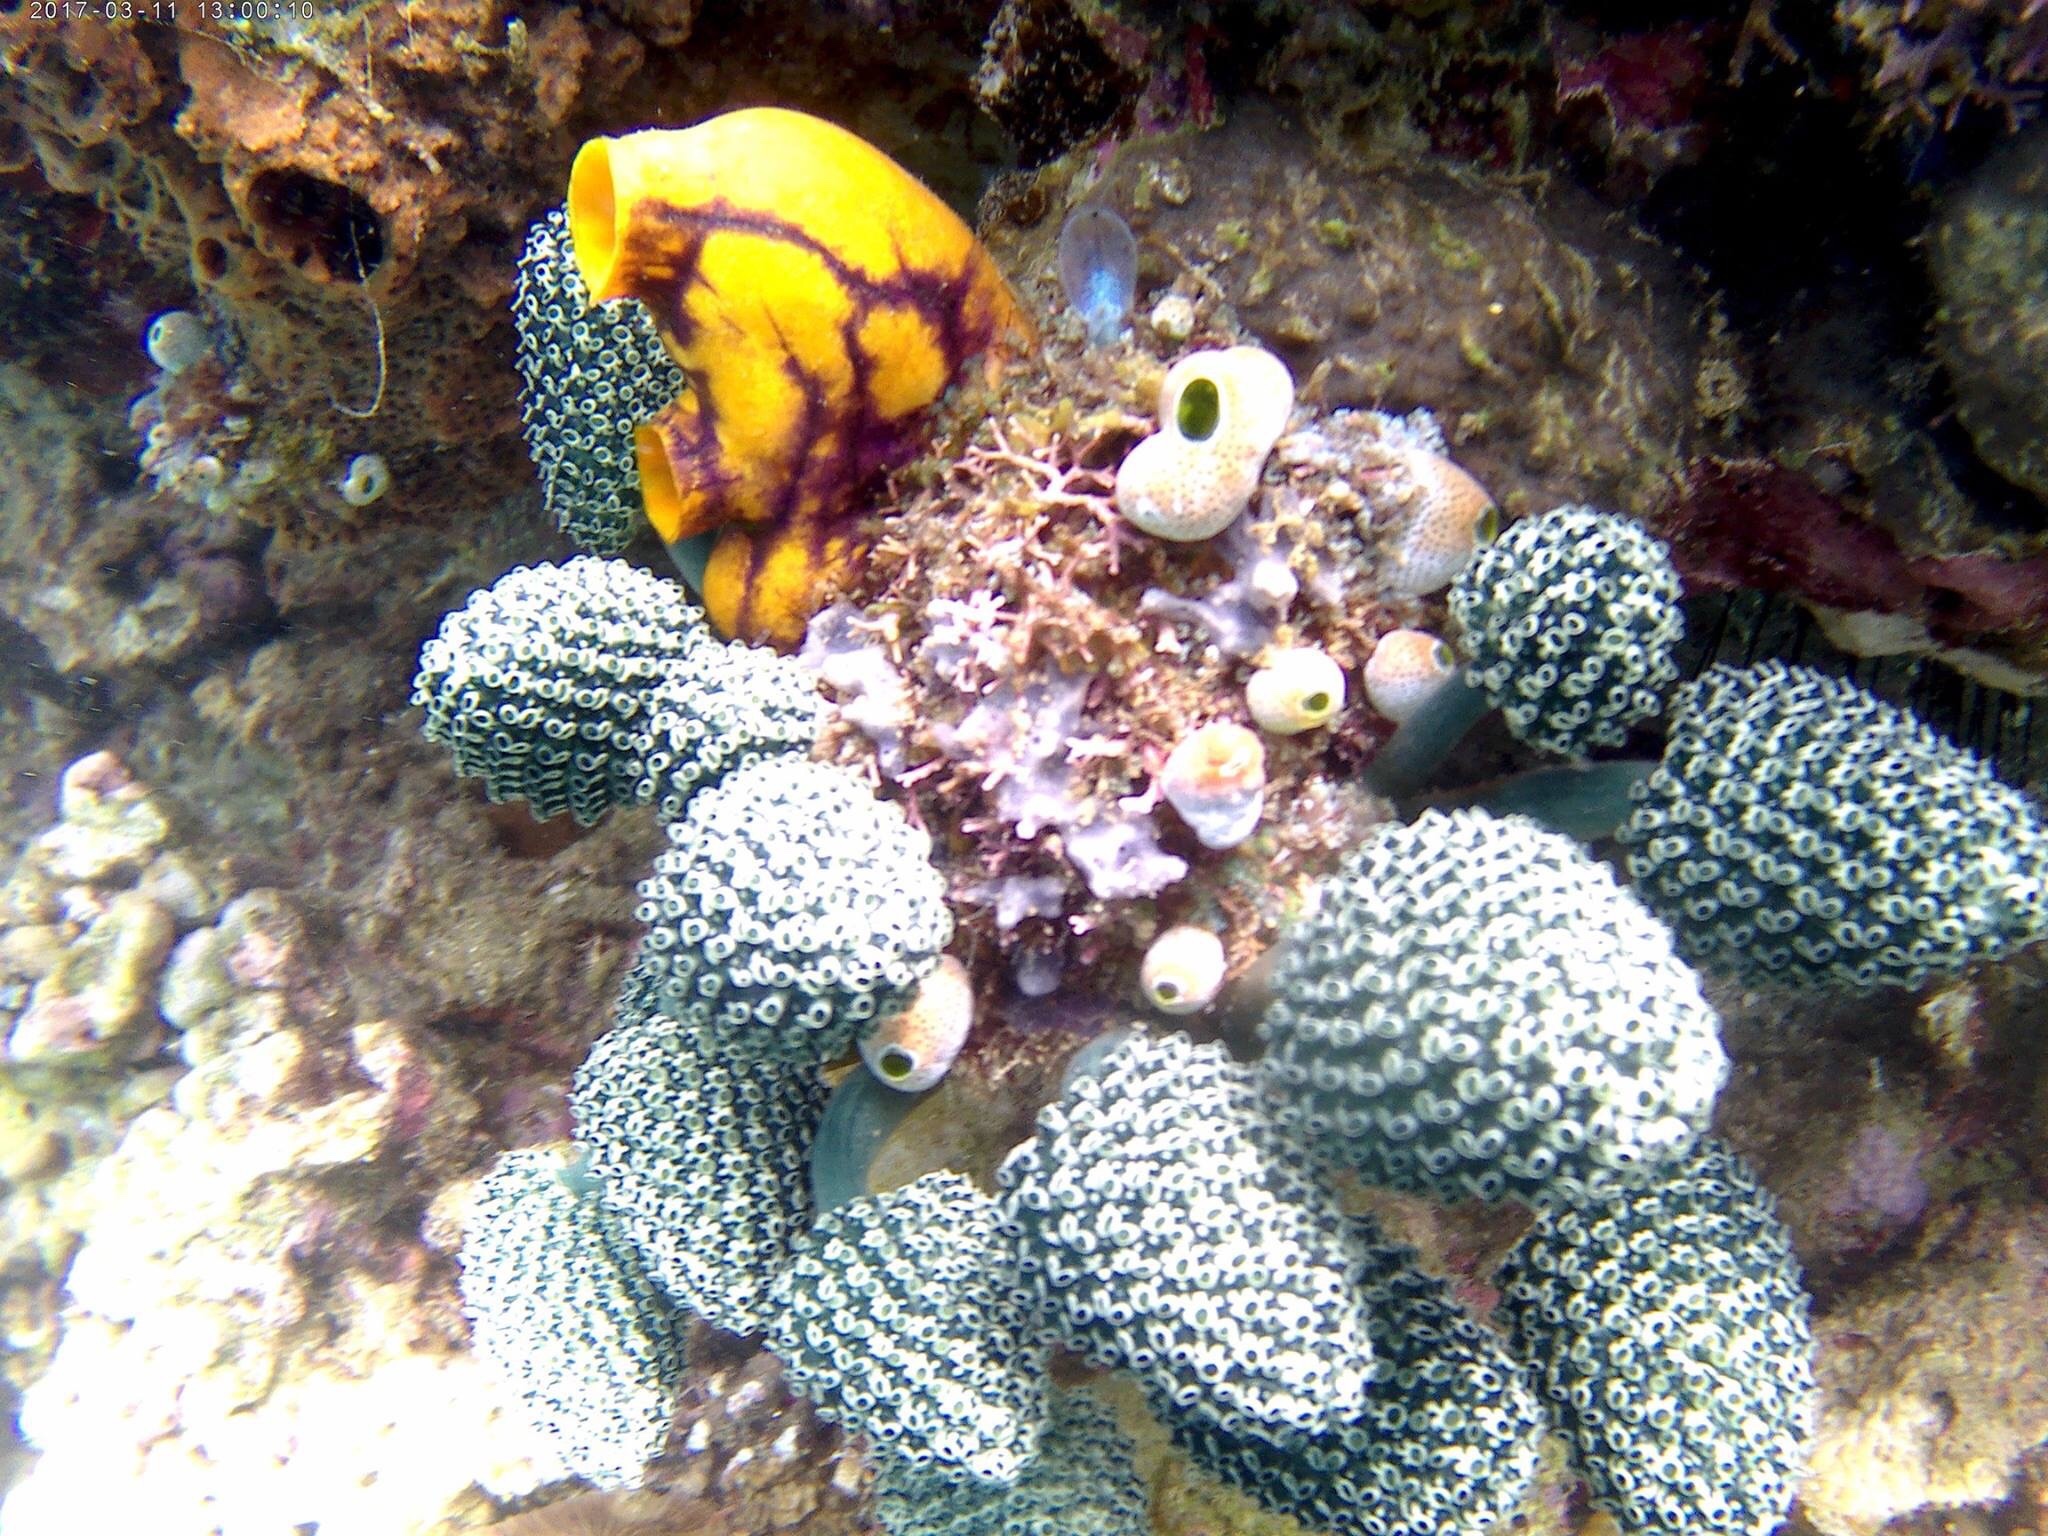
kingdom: Animalia
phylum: Chordata
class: Ascidiacea
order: Aplousobranchia
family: Clavelinidae
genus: Nephtheis
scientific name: Nephtheis fascicularis
